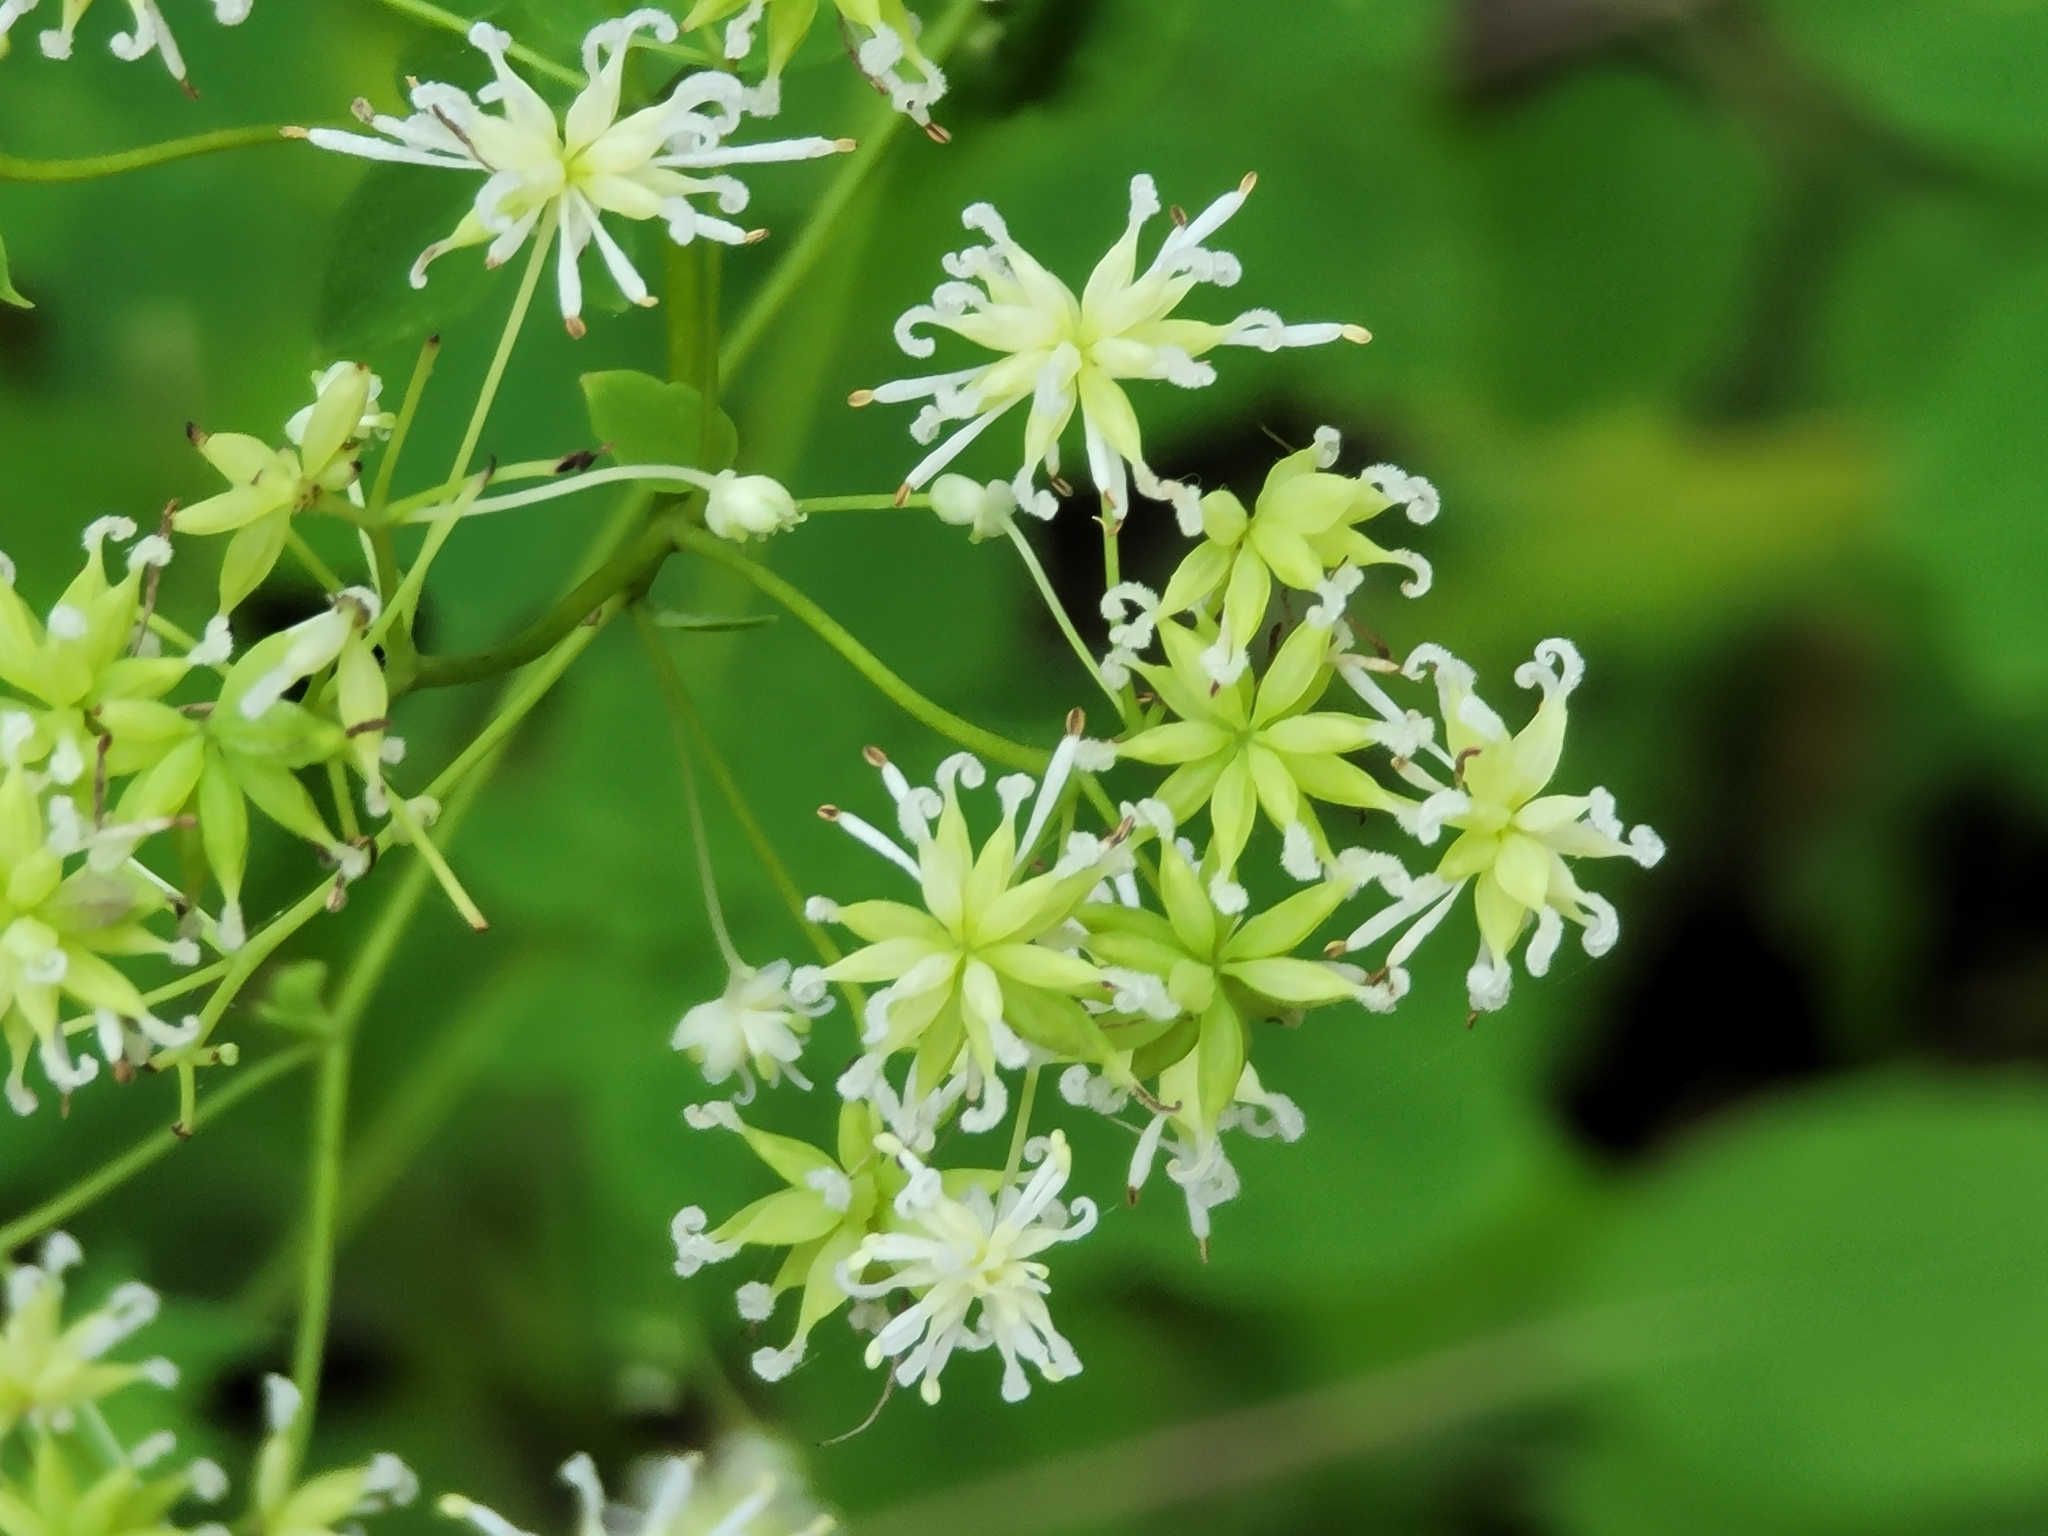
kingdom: Plantae
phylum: Tracheophyta
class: Magnoliopsida
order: Ranunculales
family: Ranunculaceae
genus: Thalictrum
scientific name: Thalictrum pubescens
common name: King-of-the-meadow
